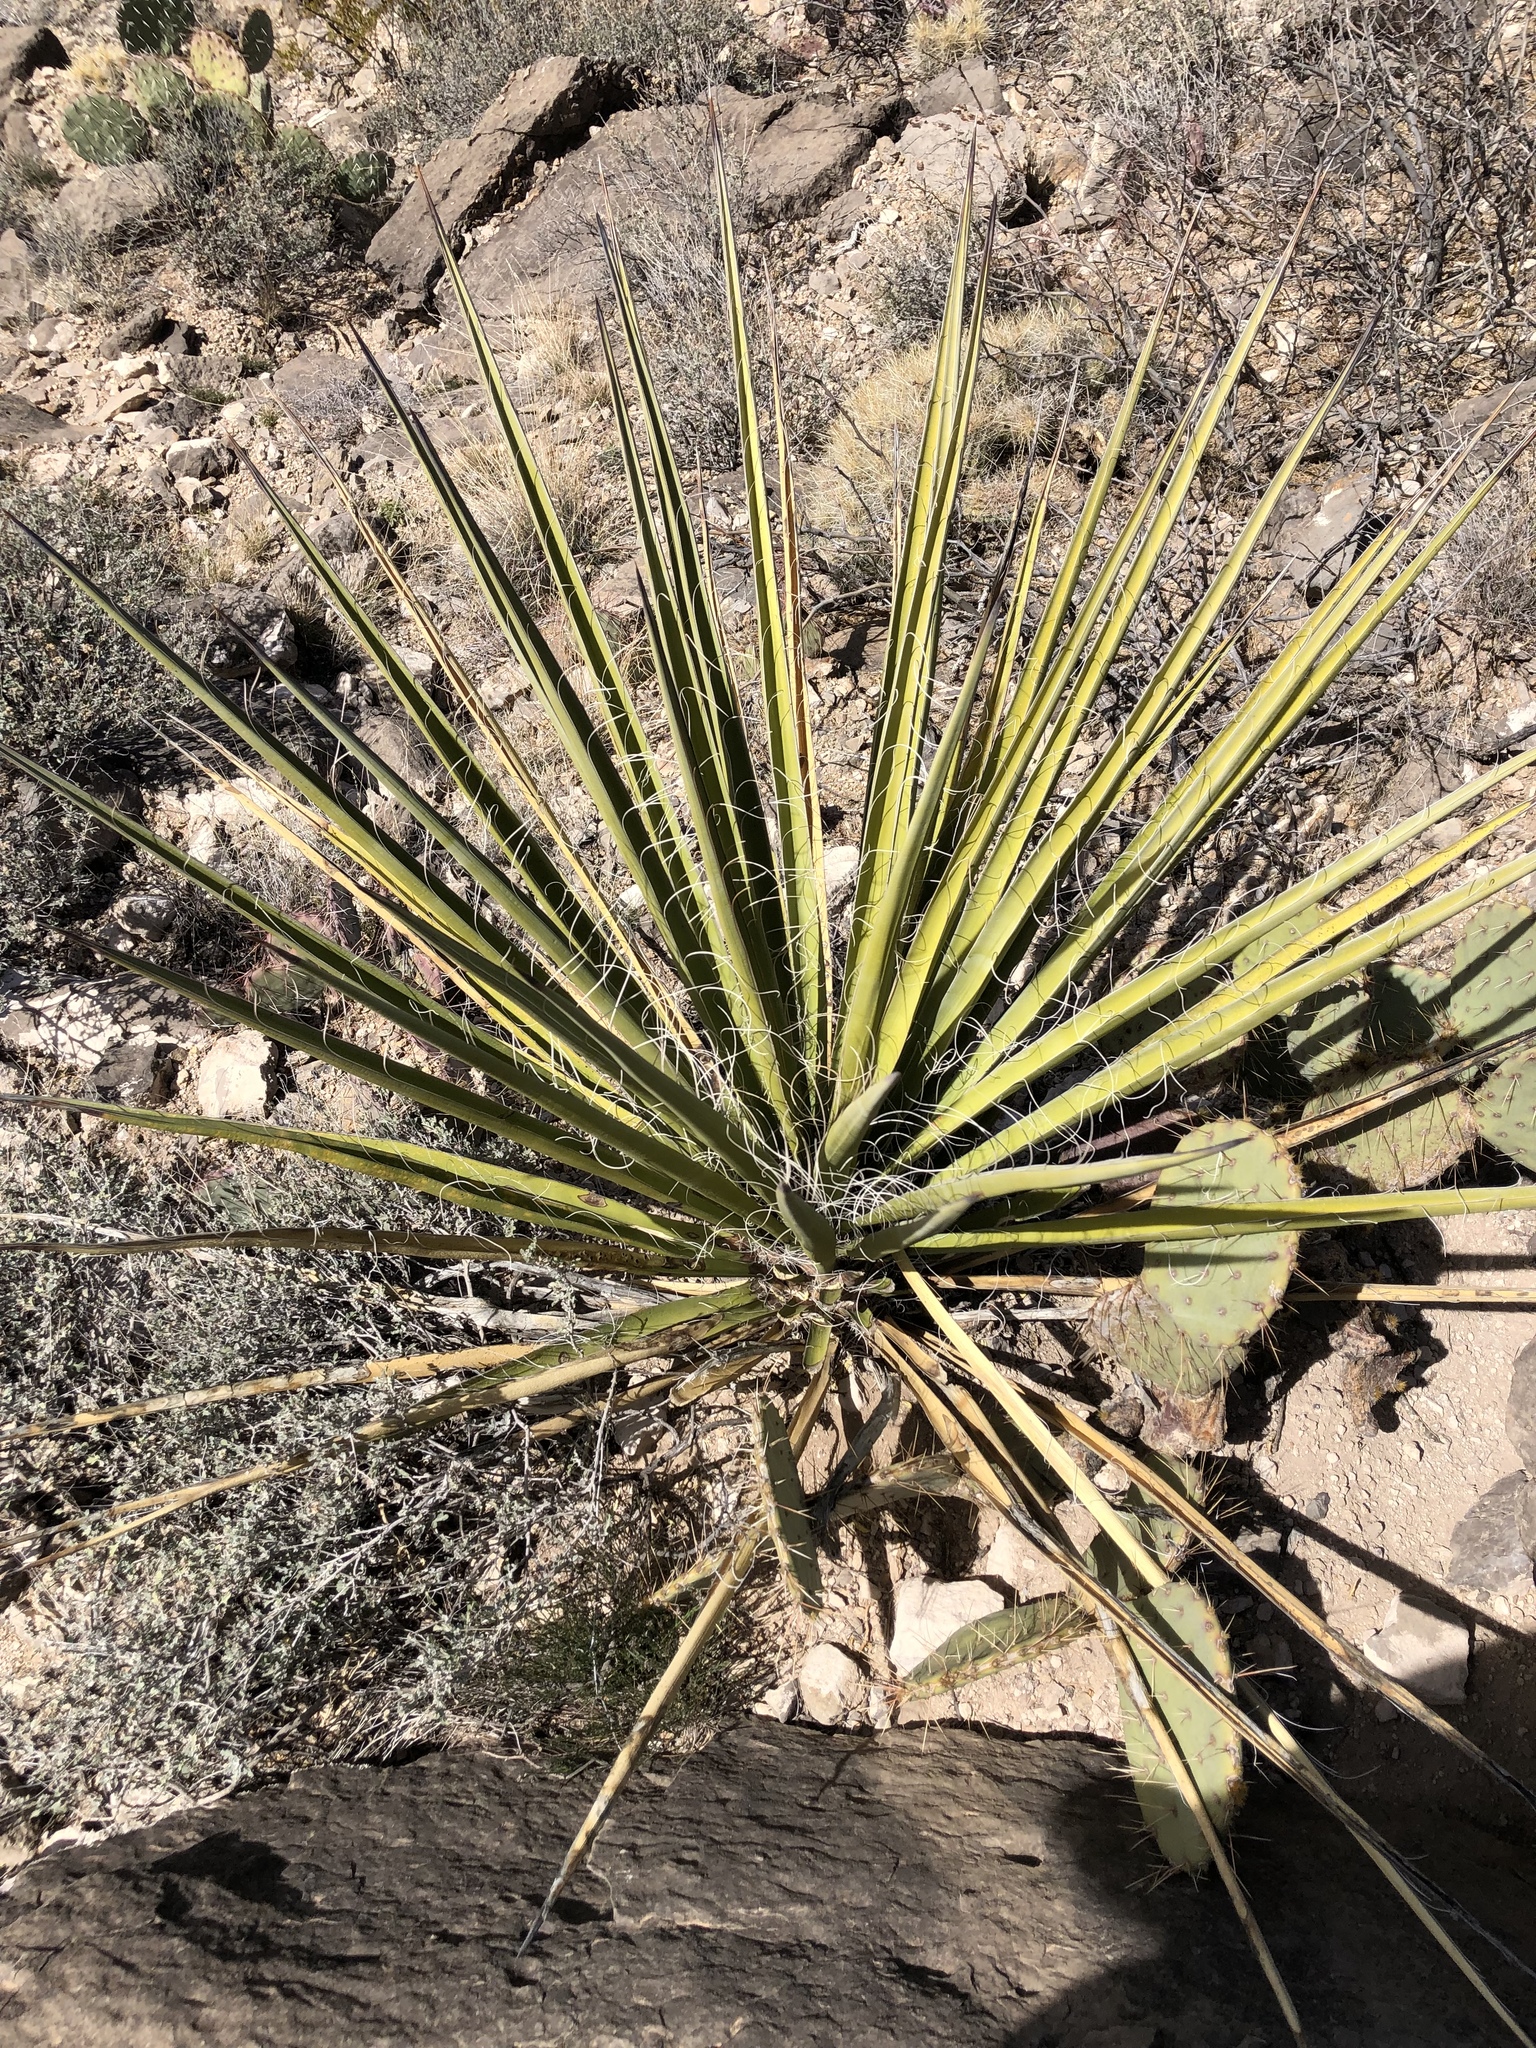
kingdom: Plantae
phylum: Tracheophyta
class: Liliopsida
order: Asparagales
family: Asparagaceae
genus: Yucca
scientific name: Yucca treculiana
